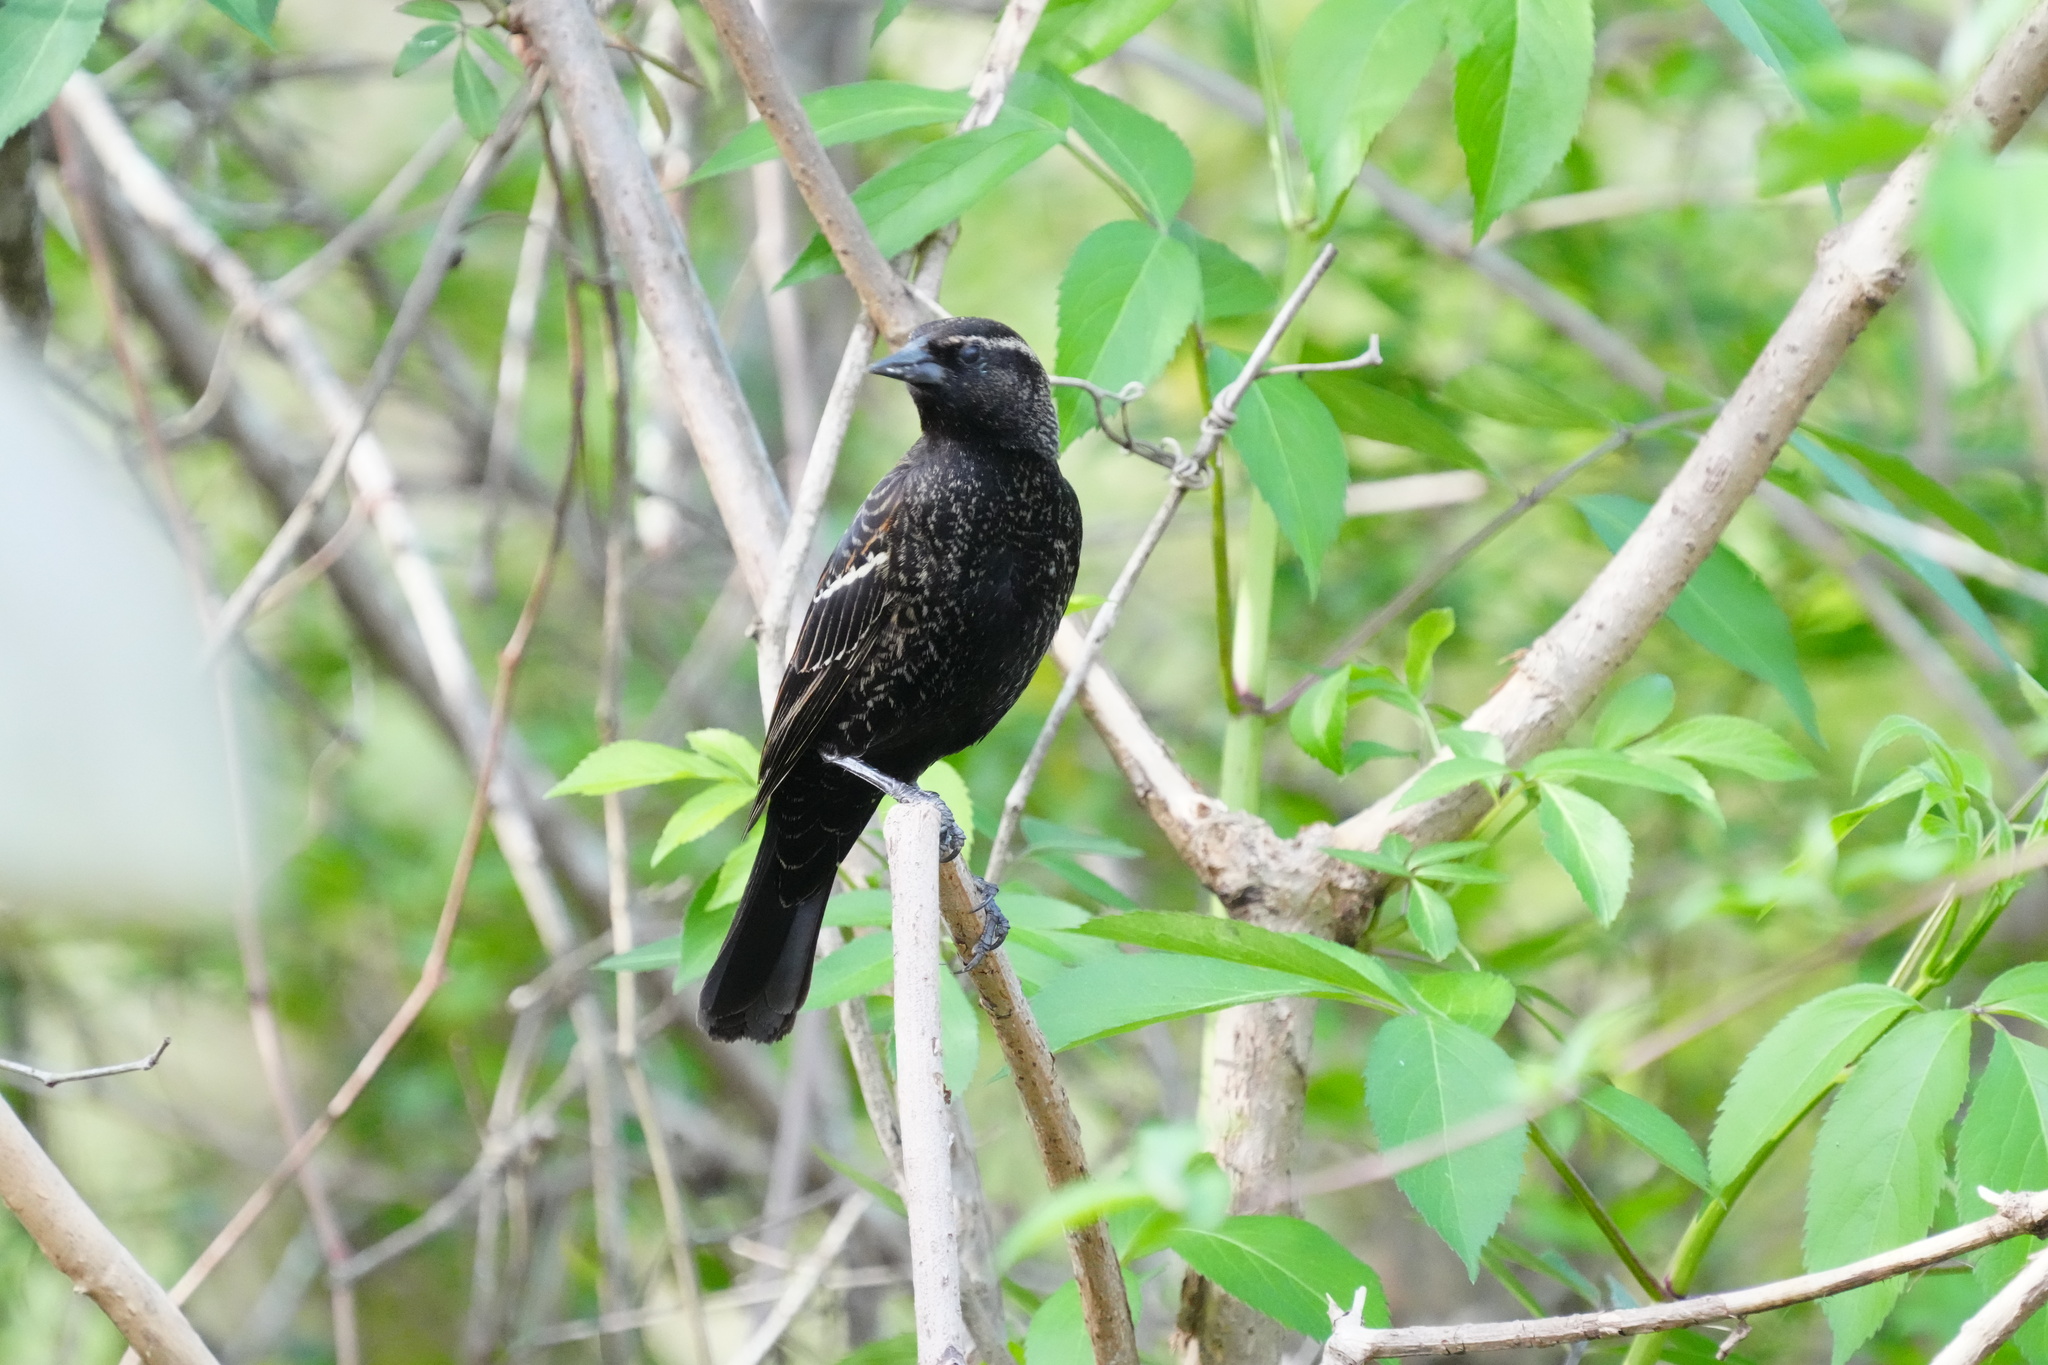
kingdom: Animalia
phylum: Chordata
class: Aves
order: Passeriformes
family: Icteridae
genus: Agelaius
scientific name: Agelaius phoeniceus
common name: Red-winged blackbird
